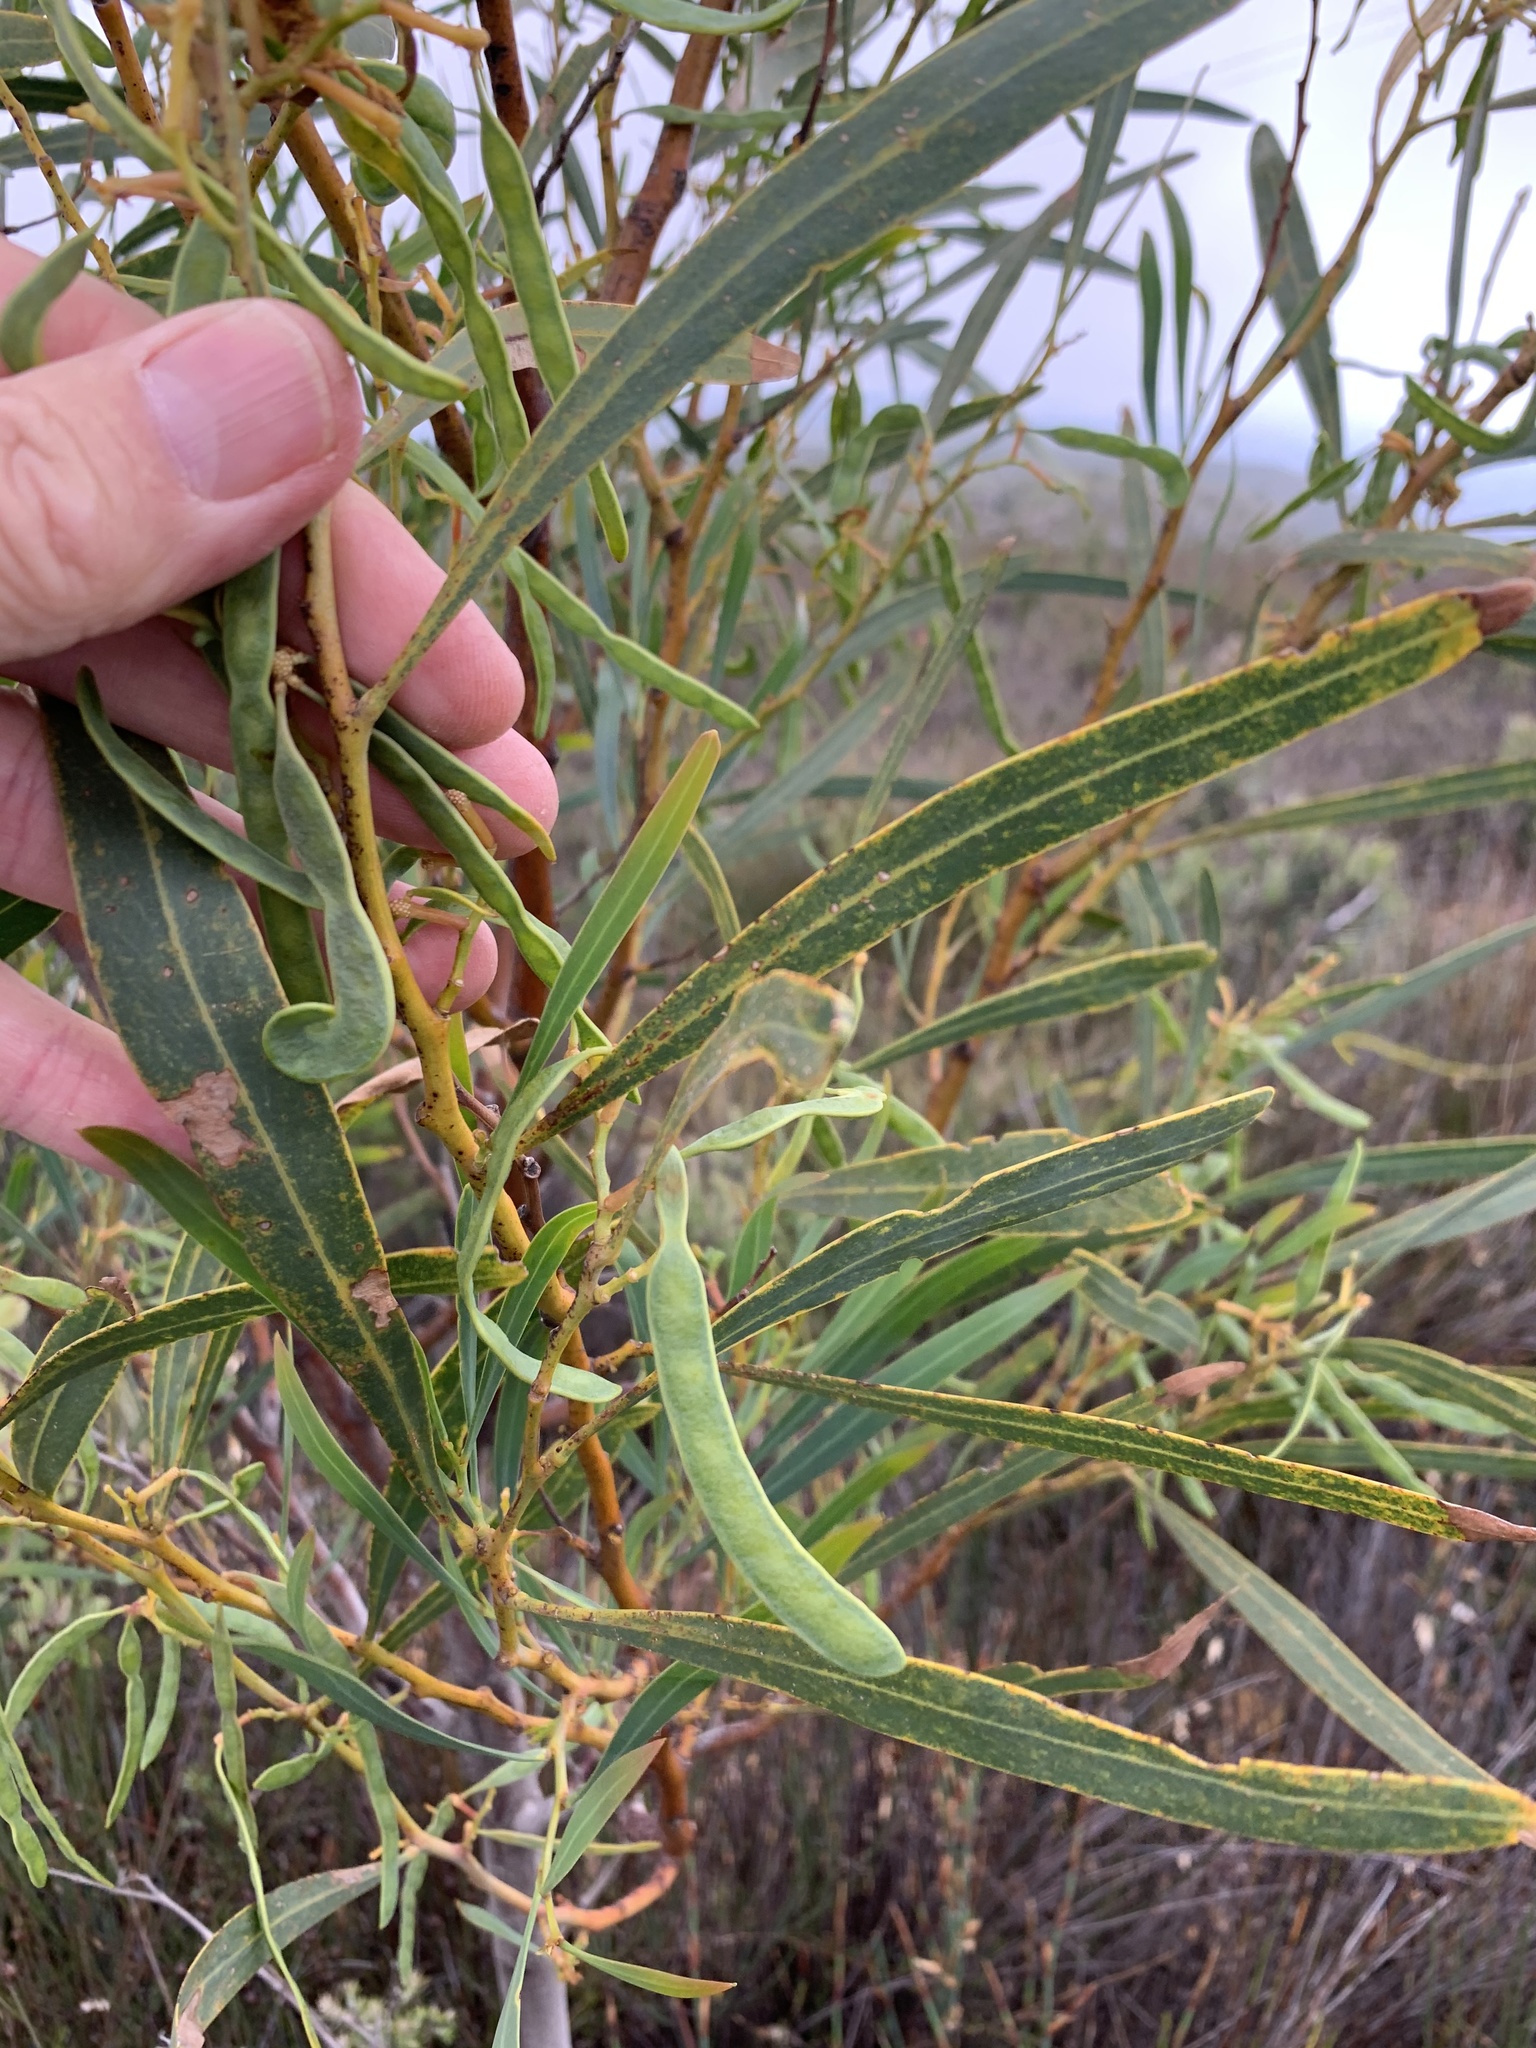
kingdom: Plantae
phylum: Tracheophyta
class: Magnoliopsida
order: Fabales
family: Fabaceae
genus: Acacia
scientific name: Acacia saligna
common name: Orange wattle
